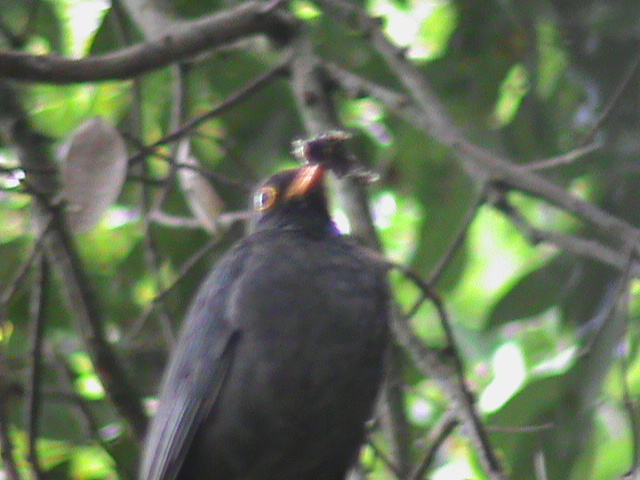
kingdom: Animalia
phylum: Chordata
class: Aves
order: Passeriformes
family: Turdidae
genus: Turdus
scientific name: Turdus simillimus
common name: Indian blackbird
